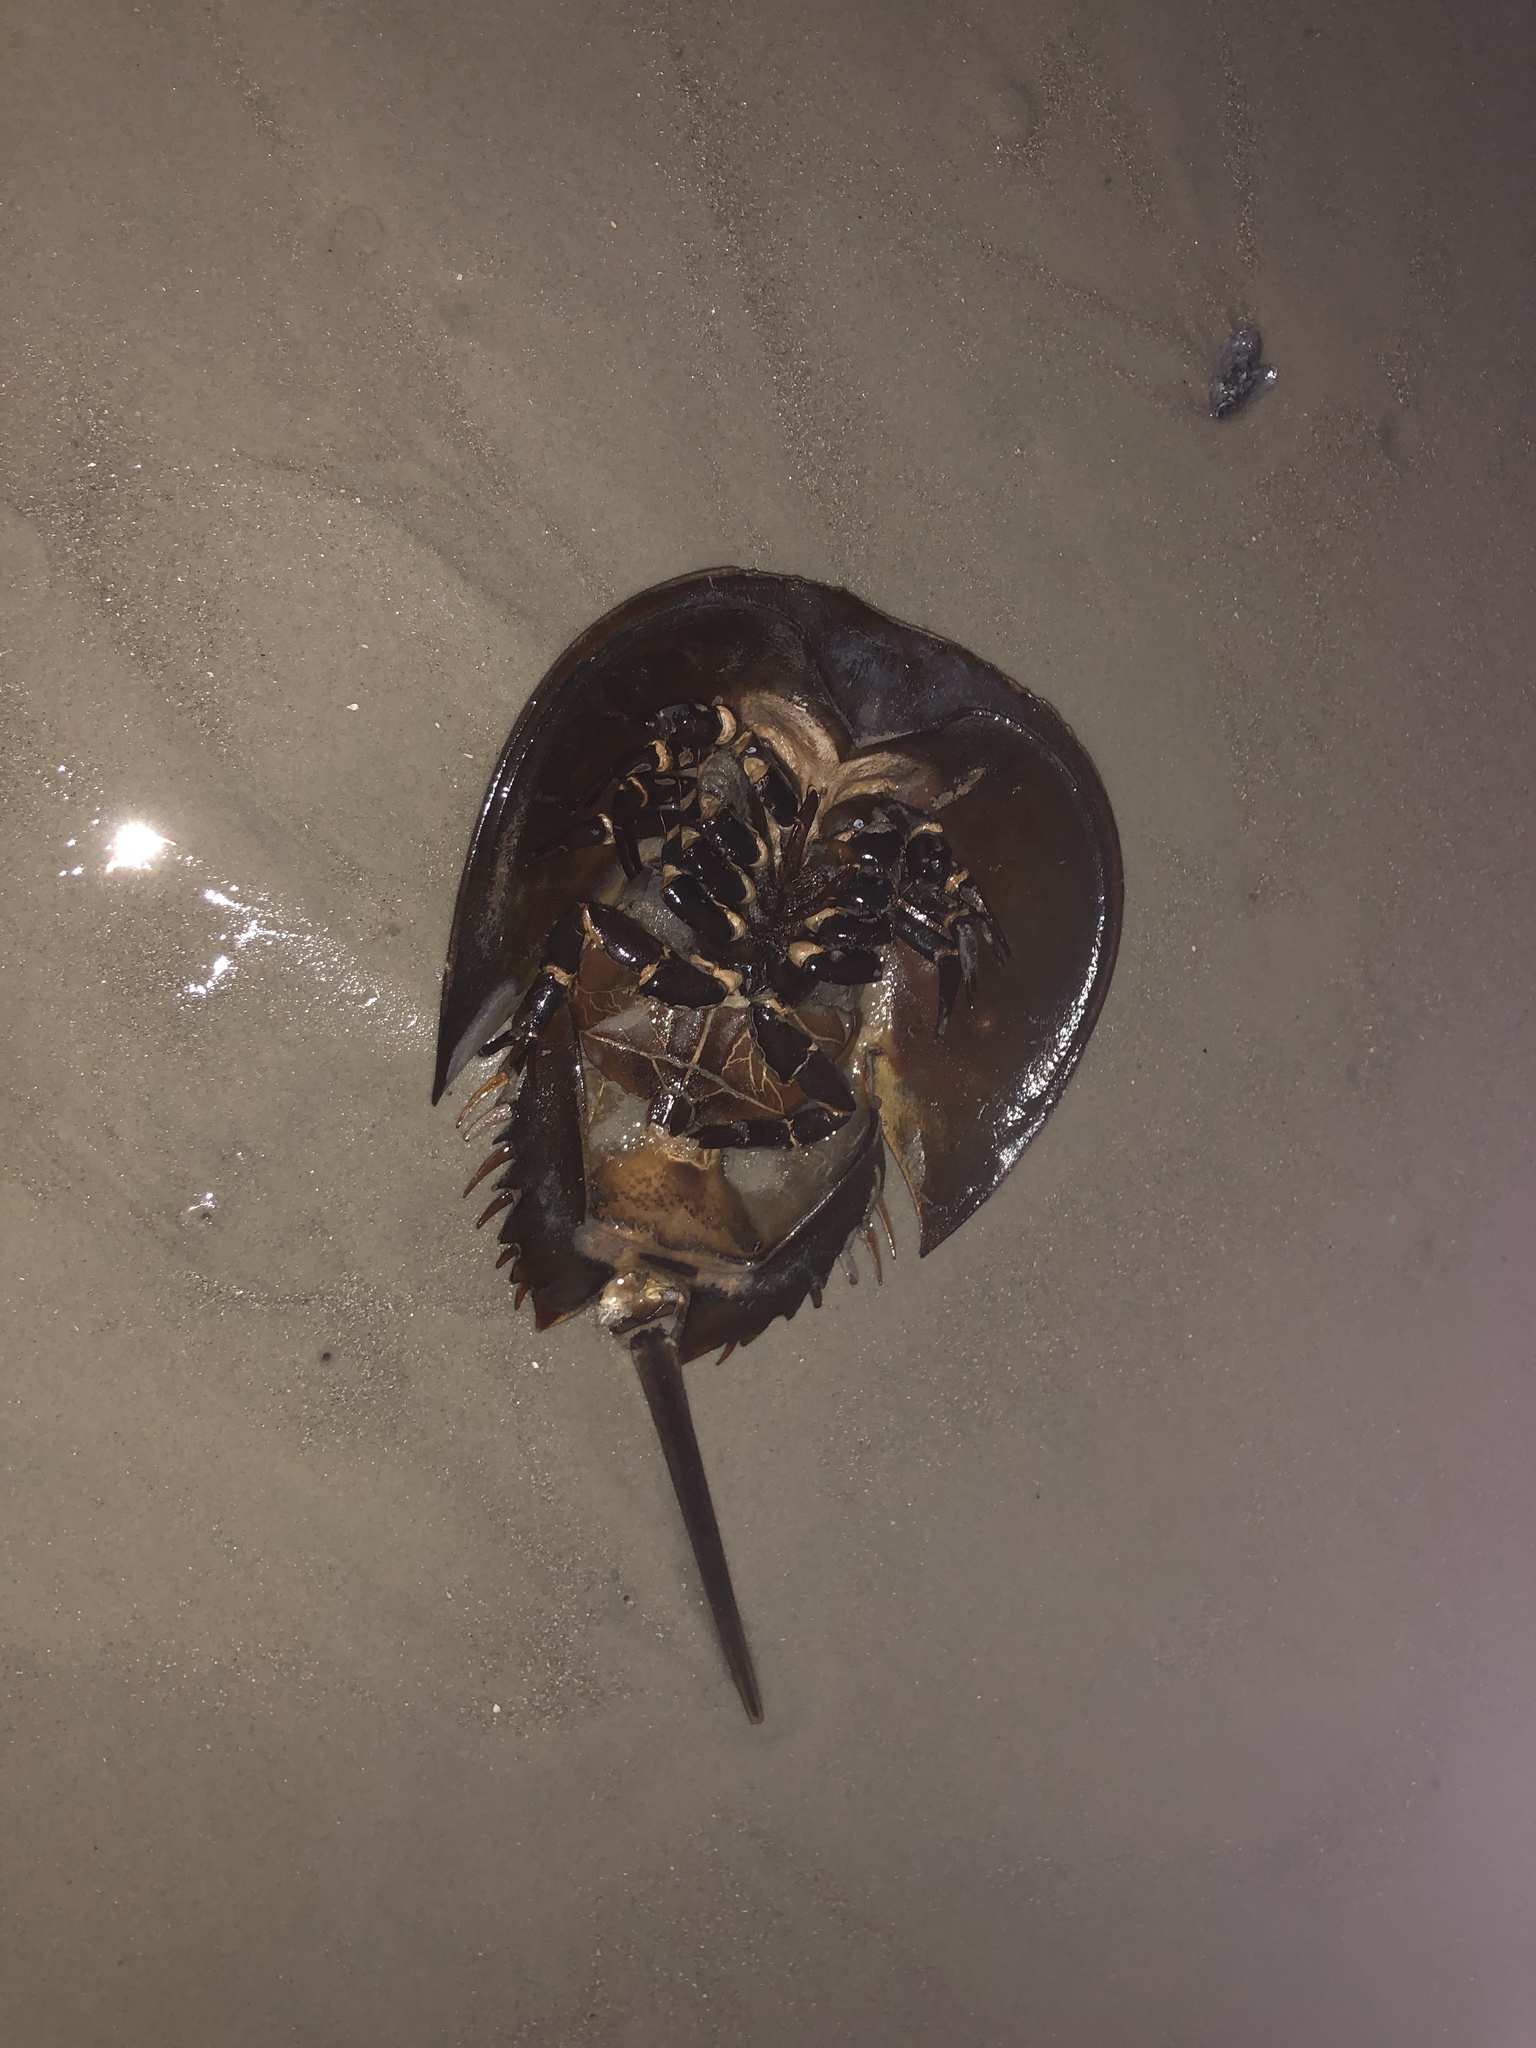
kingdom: Animalia
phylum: Arthropoda
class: Merostomata
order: Xiphosurida
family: Limulidae
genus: Limulus
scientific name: Limulus polyphemus
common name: Horseshoe crab
